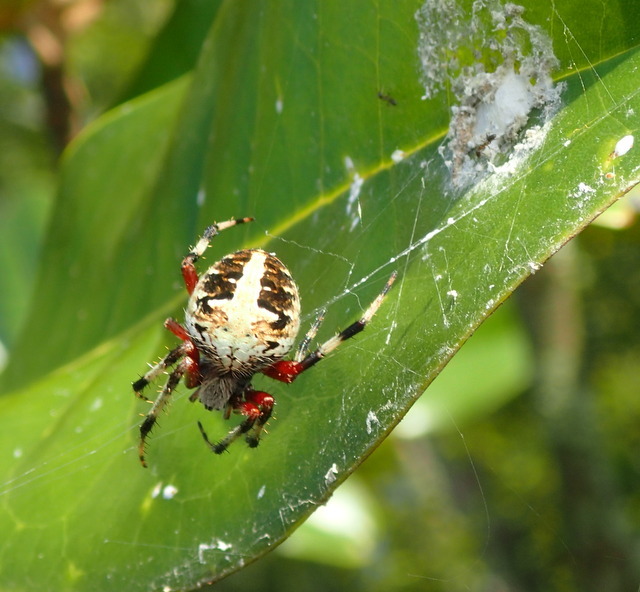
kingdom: Animalia
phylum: Arthropoda
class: Arachnida
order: Araneae
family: Araneidae
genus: Neoscona
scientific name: Neoscona domiciliorum
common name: Red-femured spotted orbweaver
